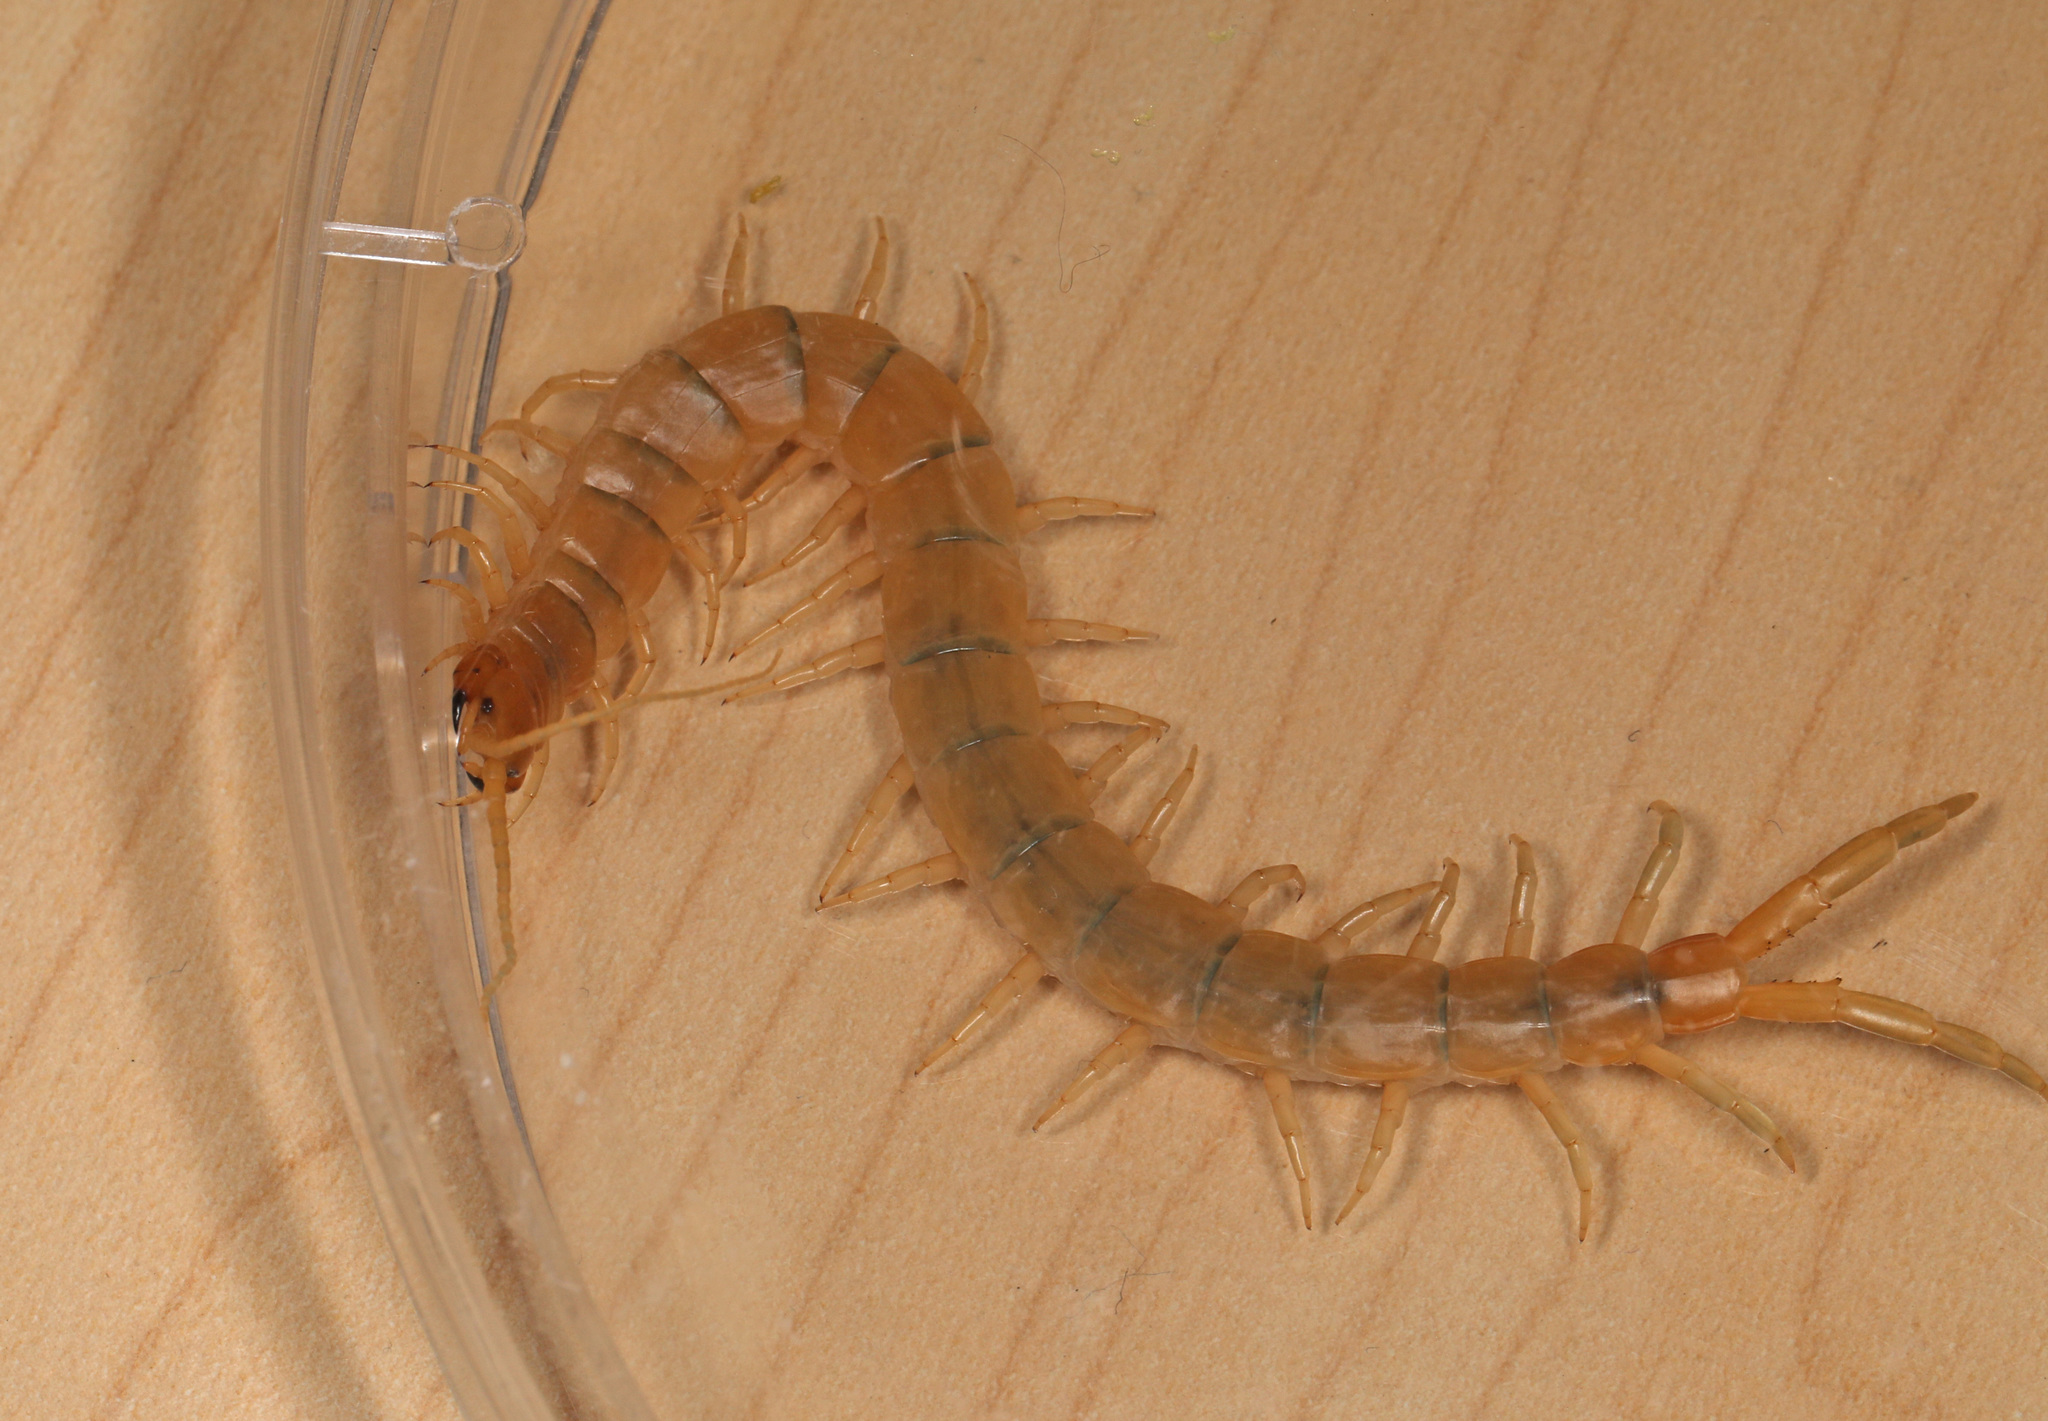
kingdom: Animalia
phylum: Arthropoda
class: Chilopoda
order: Scolopendromorpha
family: Scolopendridae
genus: Scolopendra
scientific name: Scolopendra polymorpha
